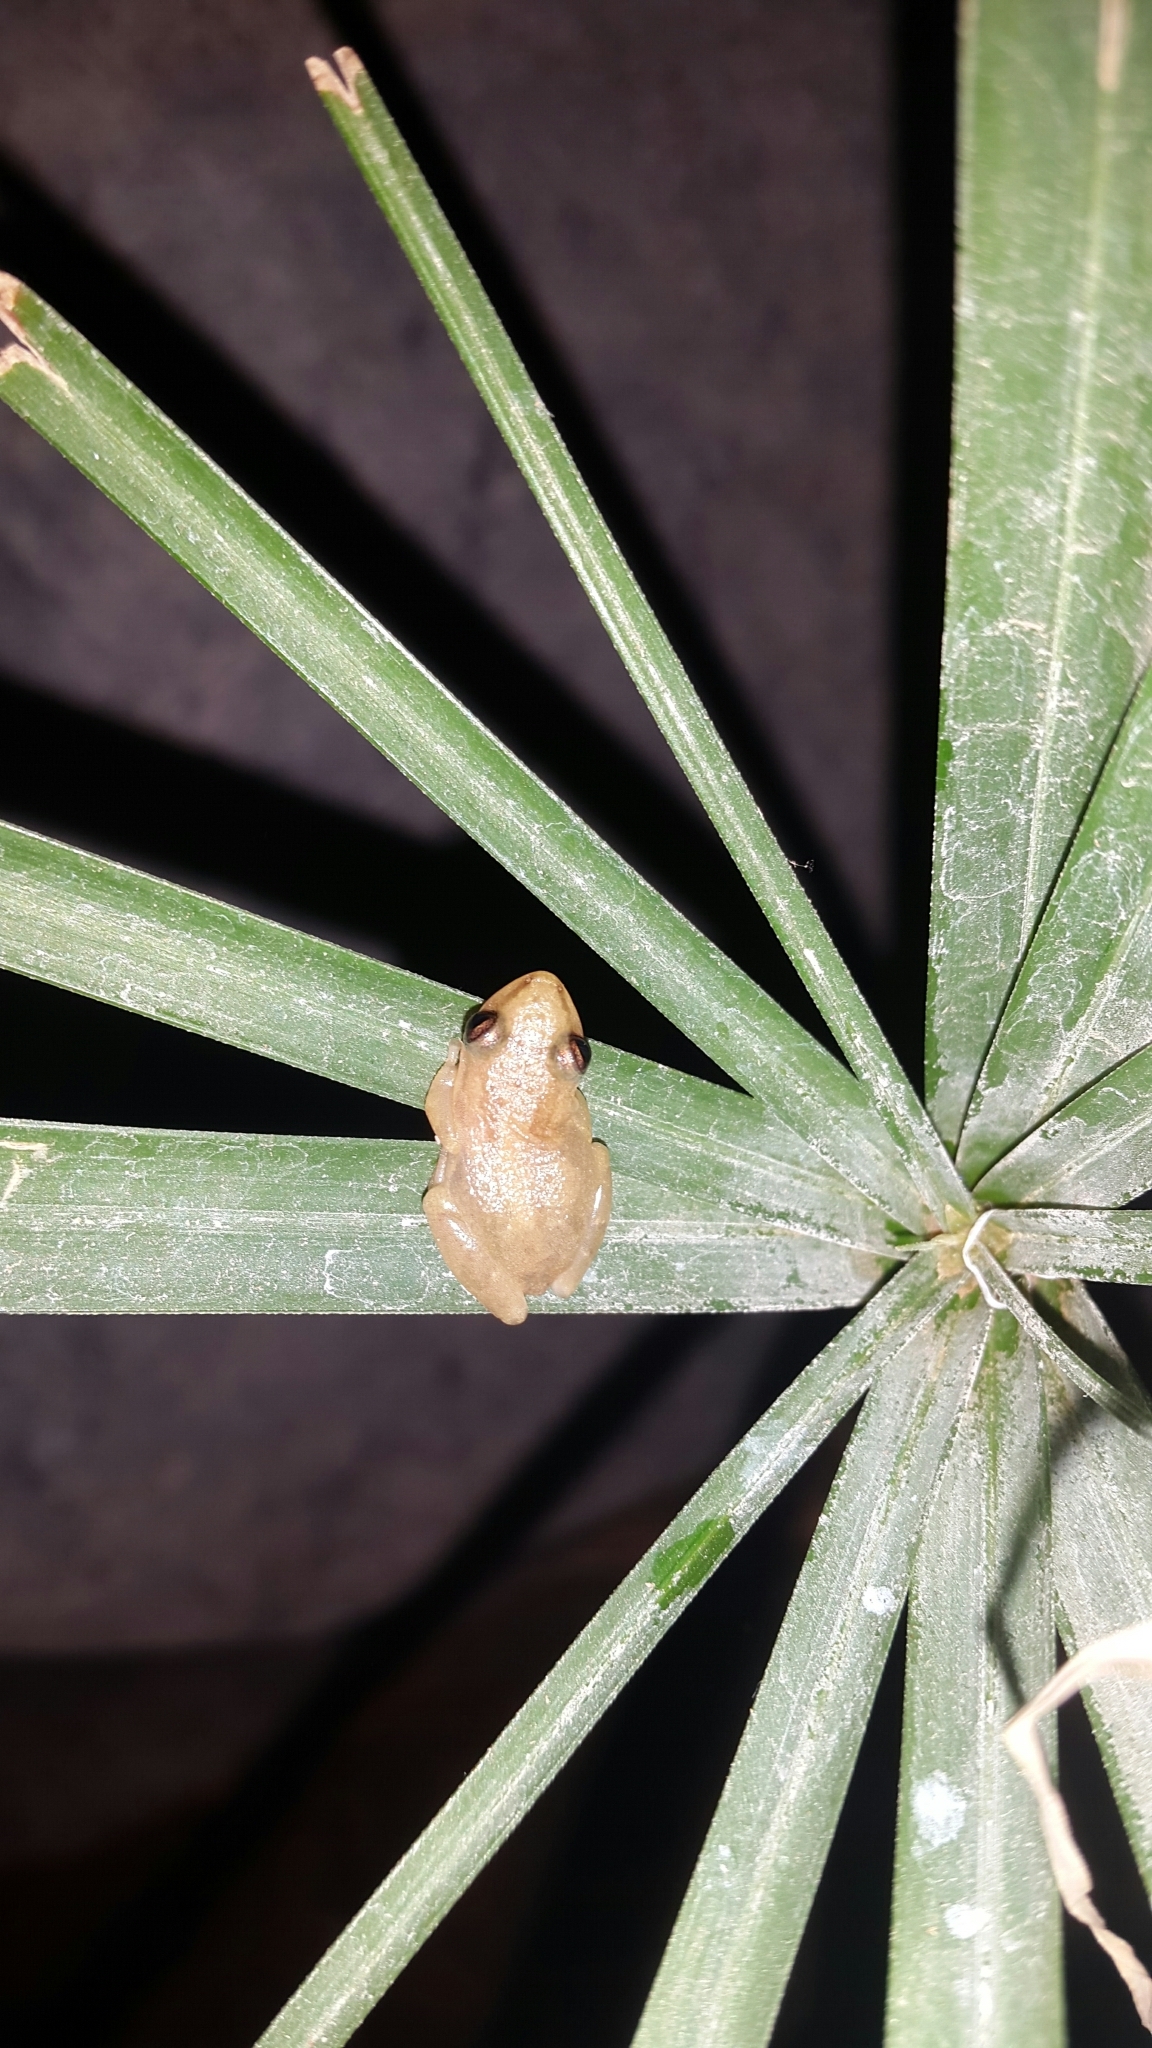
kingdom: Animalia
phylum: Chordata
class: Amphibia
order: Anura
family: Hylidae
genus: Scinax
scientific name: Scinax staufferi
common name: Stauffer's long-nosed treefrog
